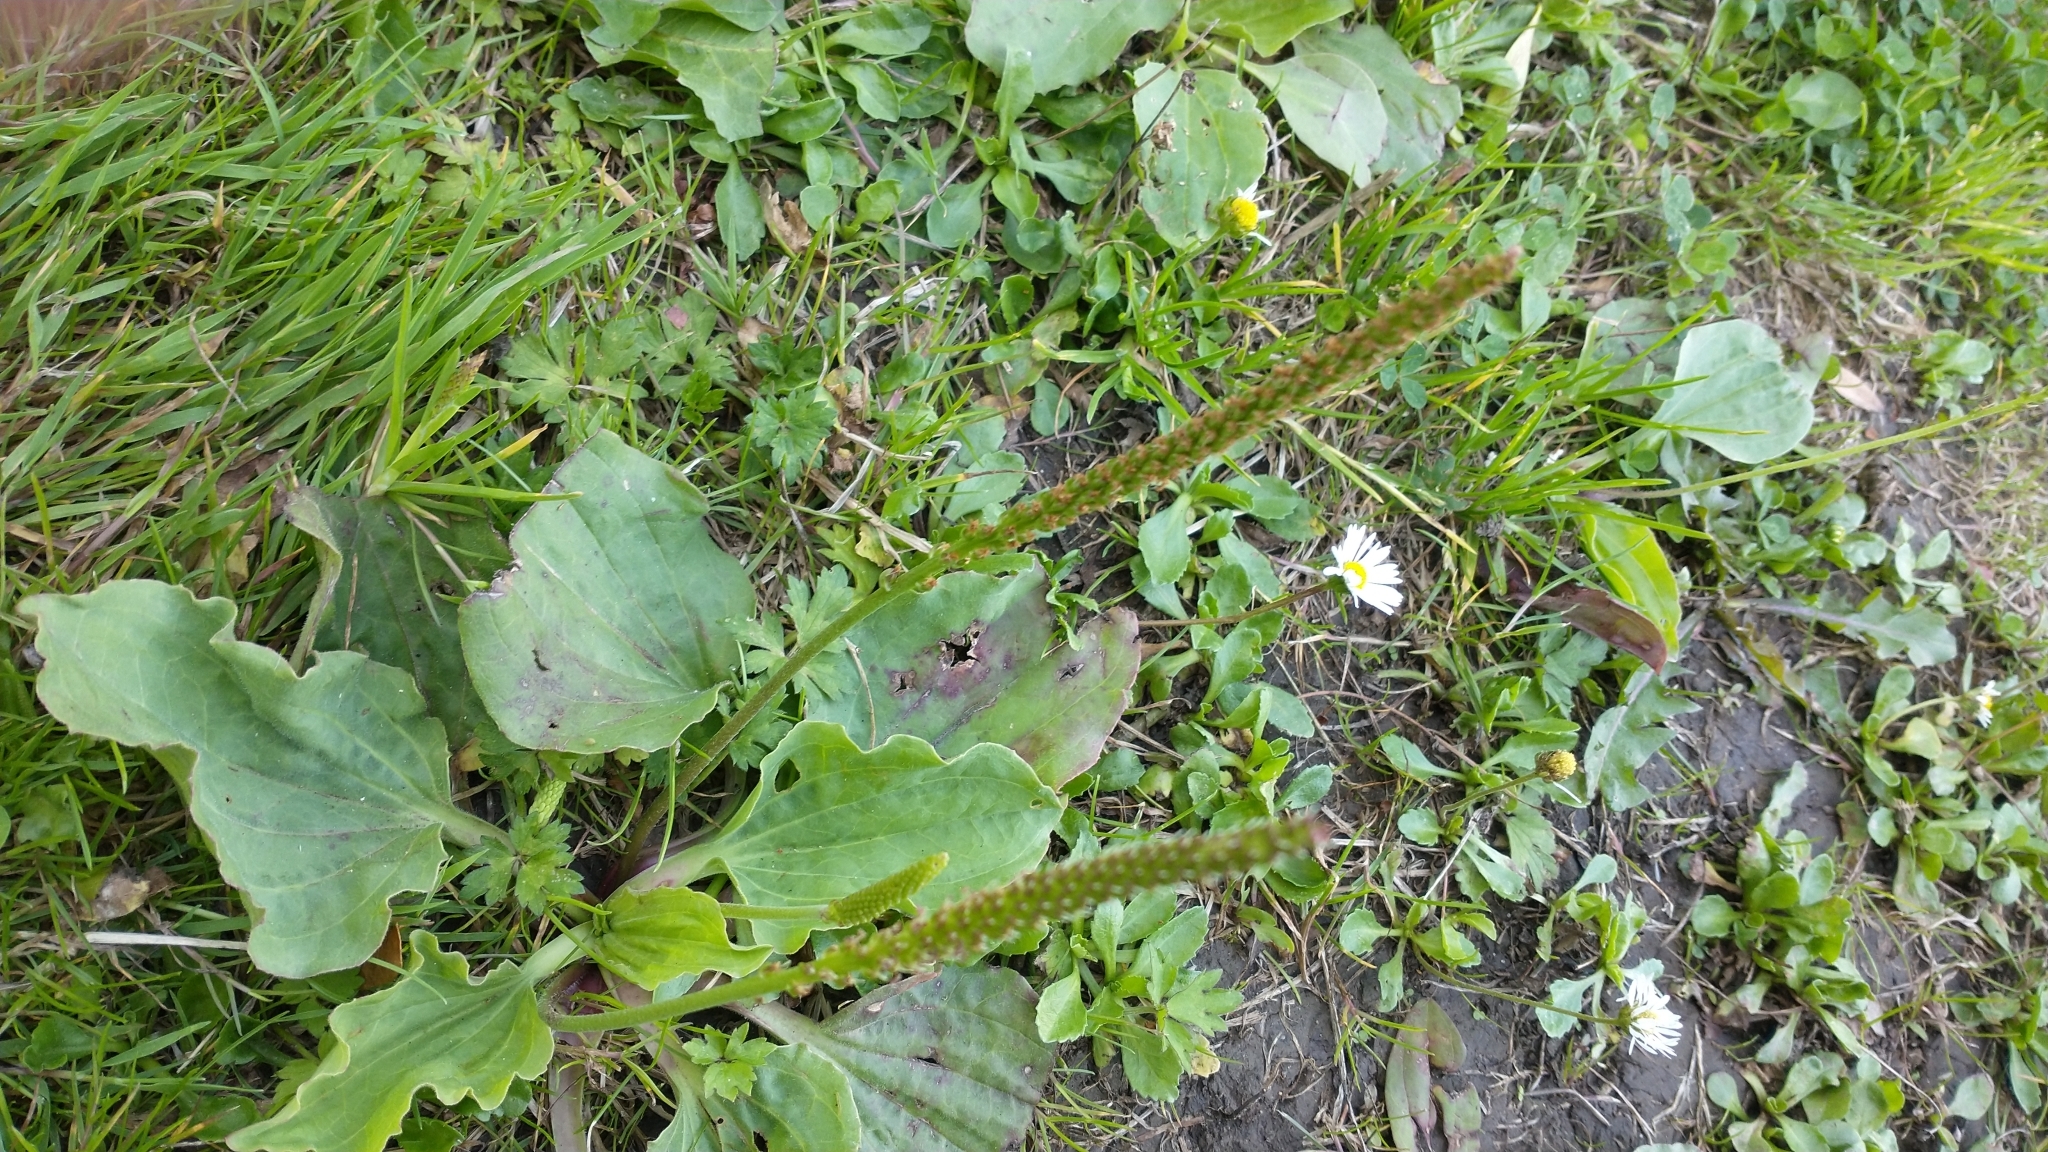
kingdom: Plantae
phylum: Tracheophyta
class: Magnoliopsida
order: Lamiales
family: Plantaginaceae
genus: Plantago
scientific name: Plantago major
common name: Common plantain
